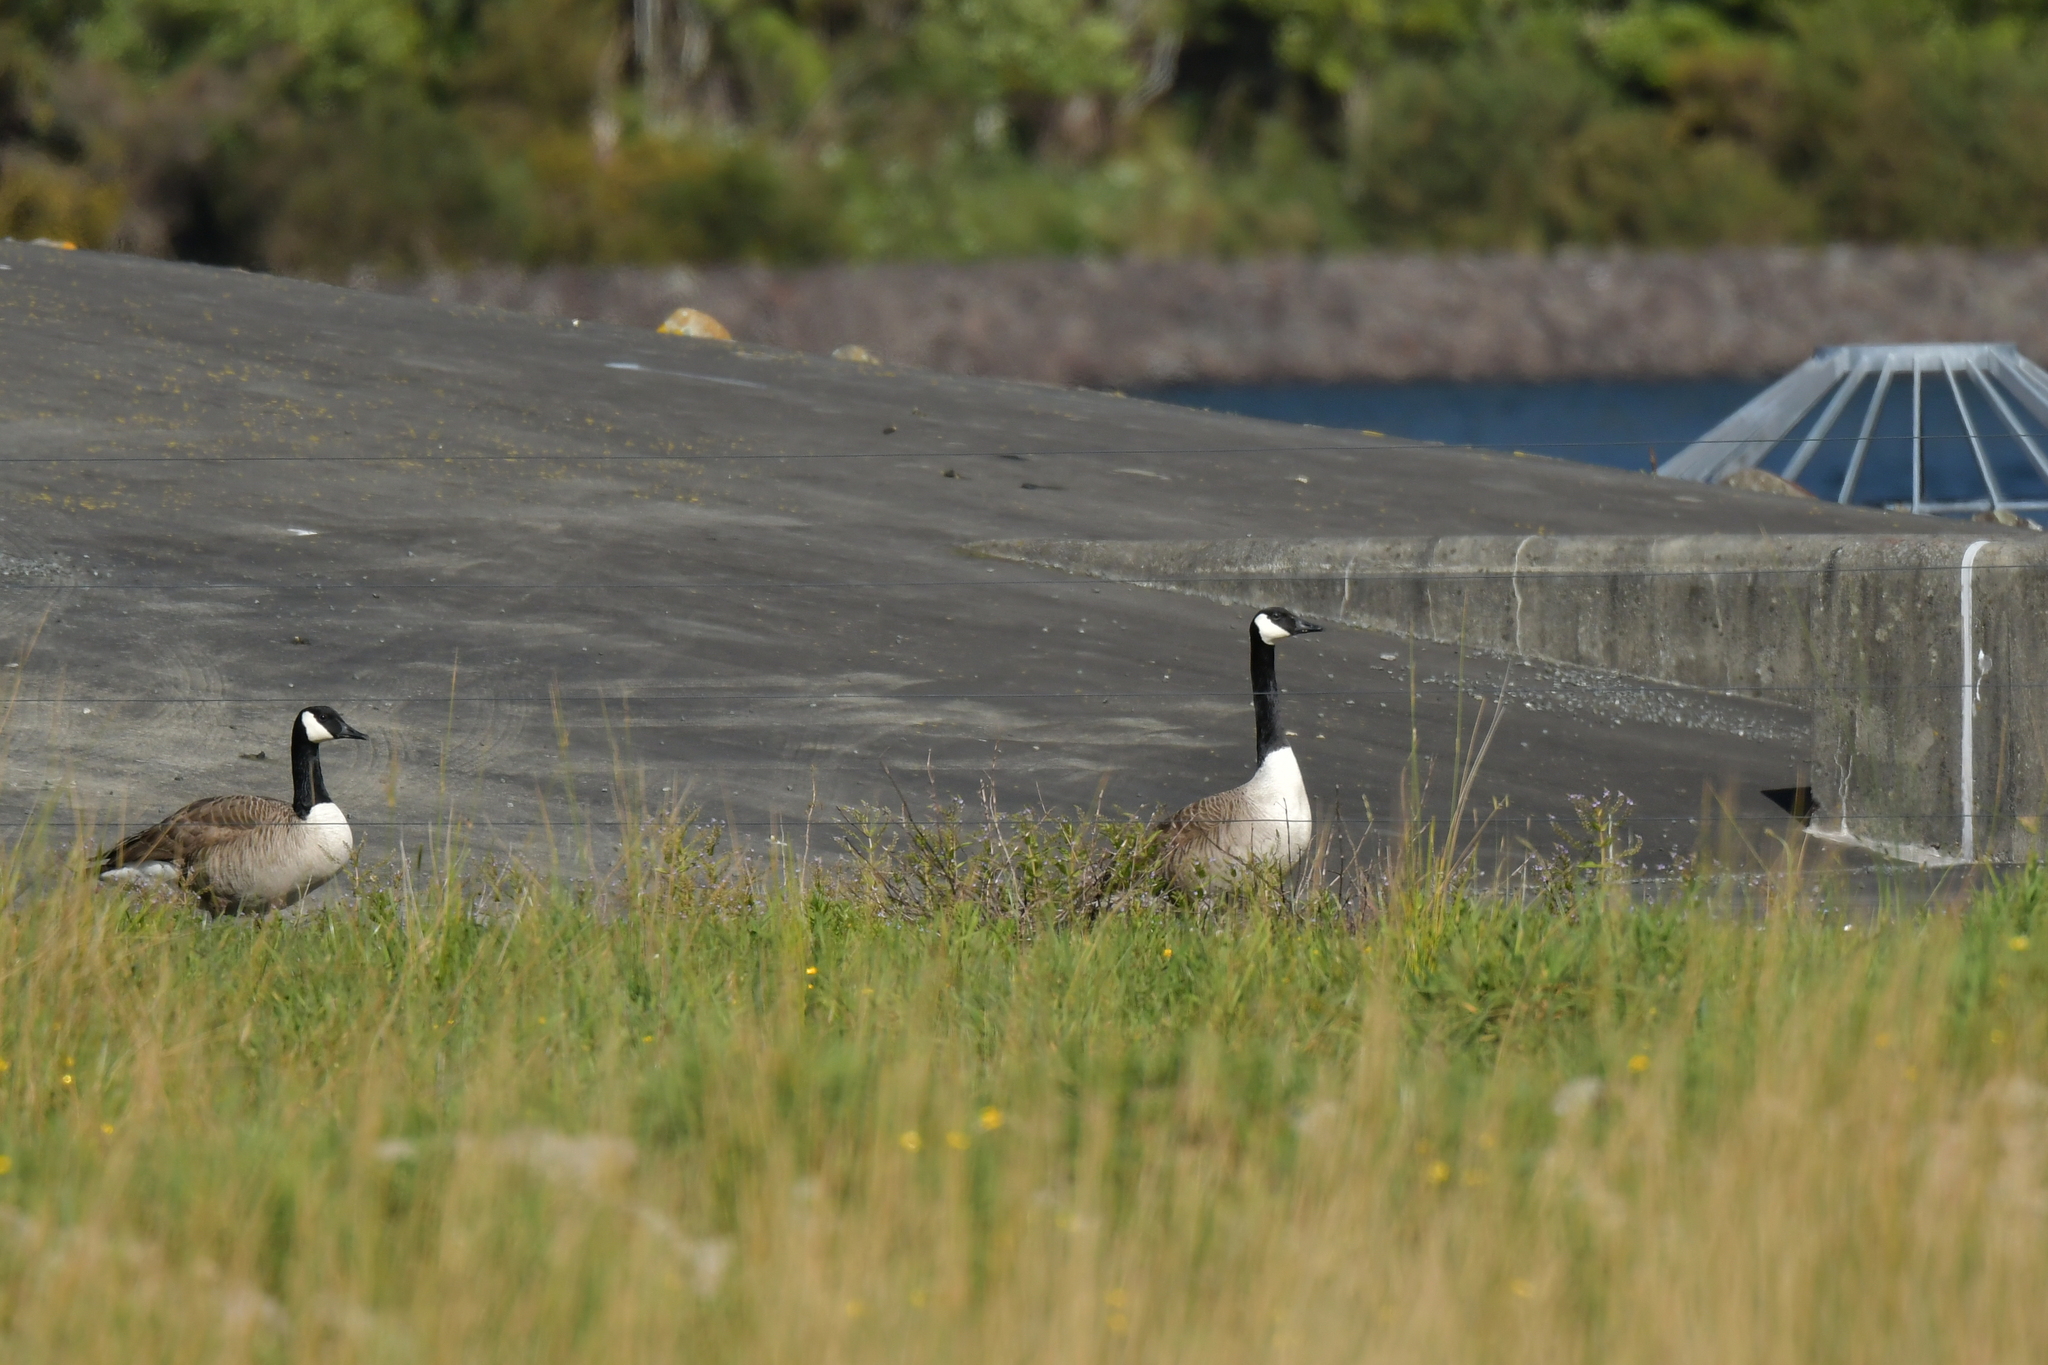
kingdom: Animalia
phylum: Chordata
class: Aves
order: Anseriformes
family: Anatidae
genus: Branta
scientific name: Branta canadensis
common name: Canada goose
